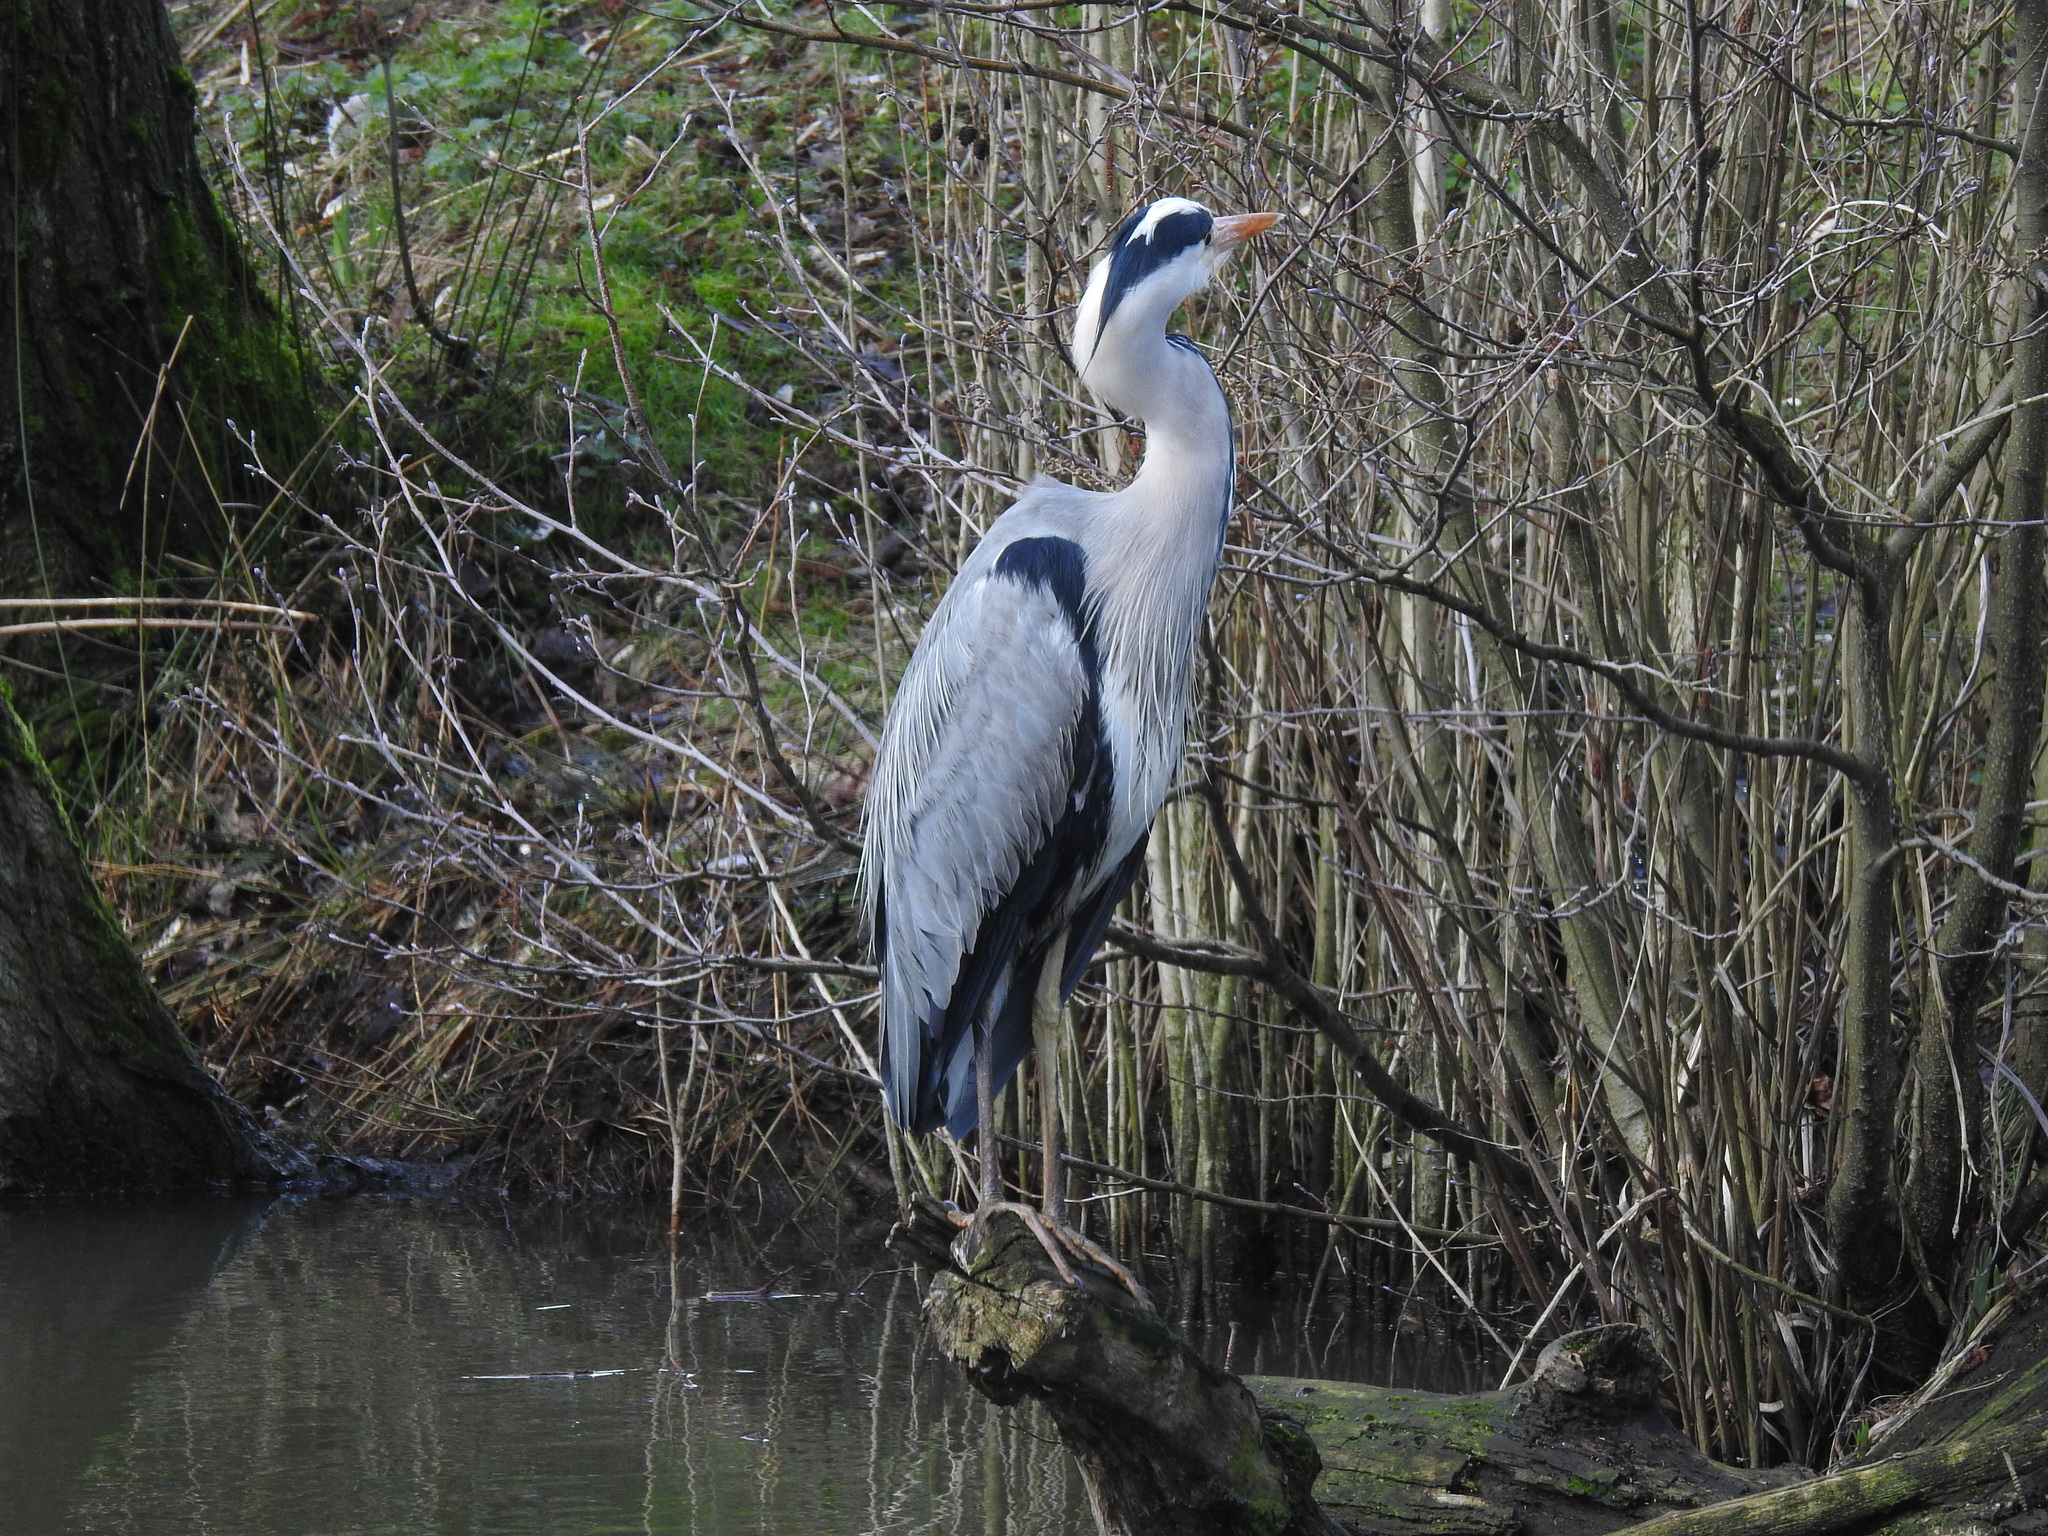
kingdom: Animalia
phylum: Chordata
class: Aves
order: Pelecaniformes
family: Ardeidae
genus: Ardea
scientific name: Ardea cinerea
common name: Grey heron
